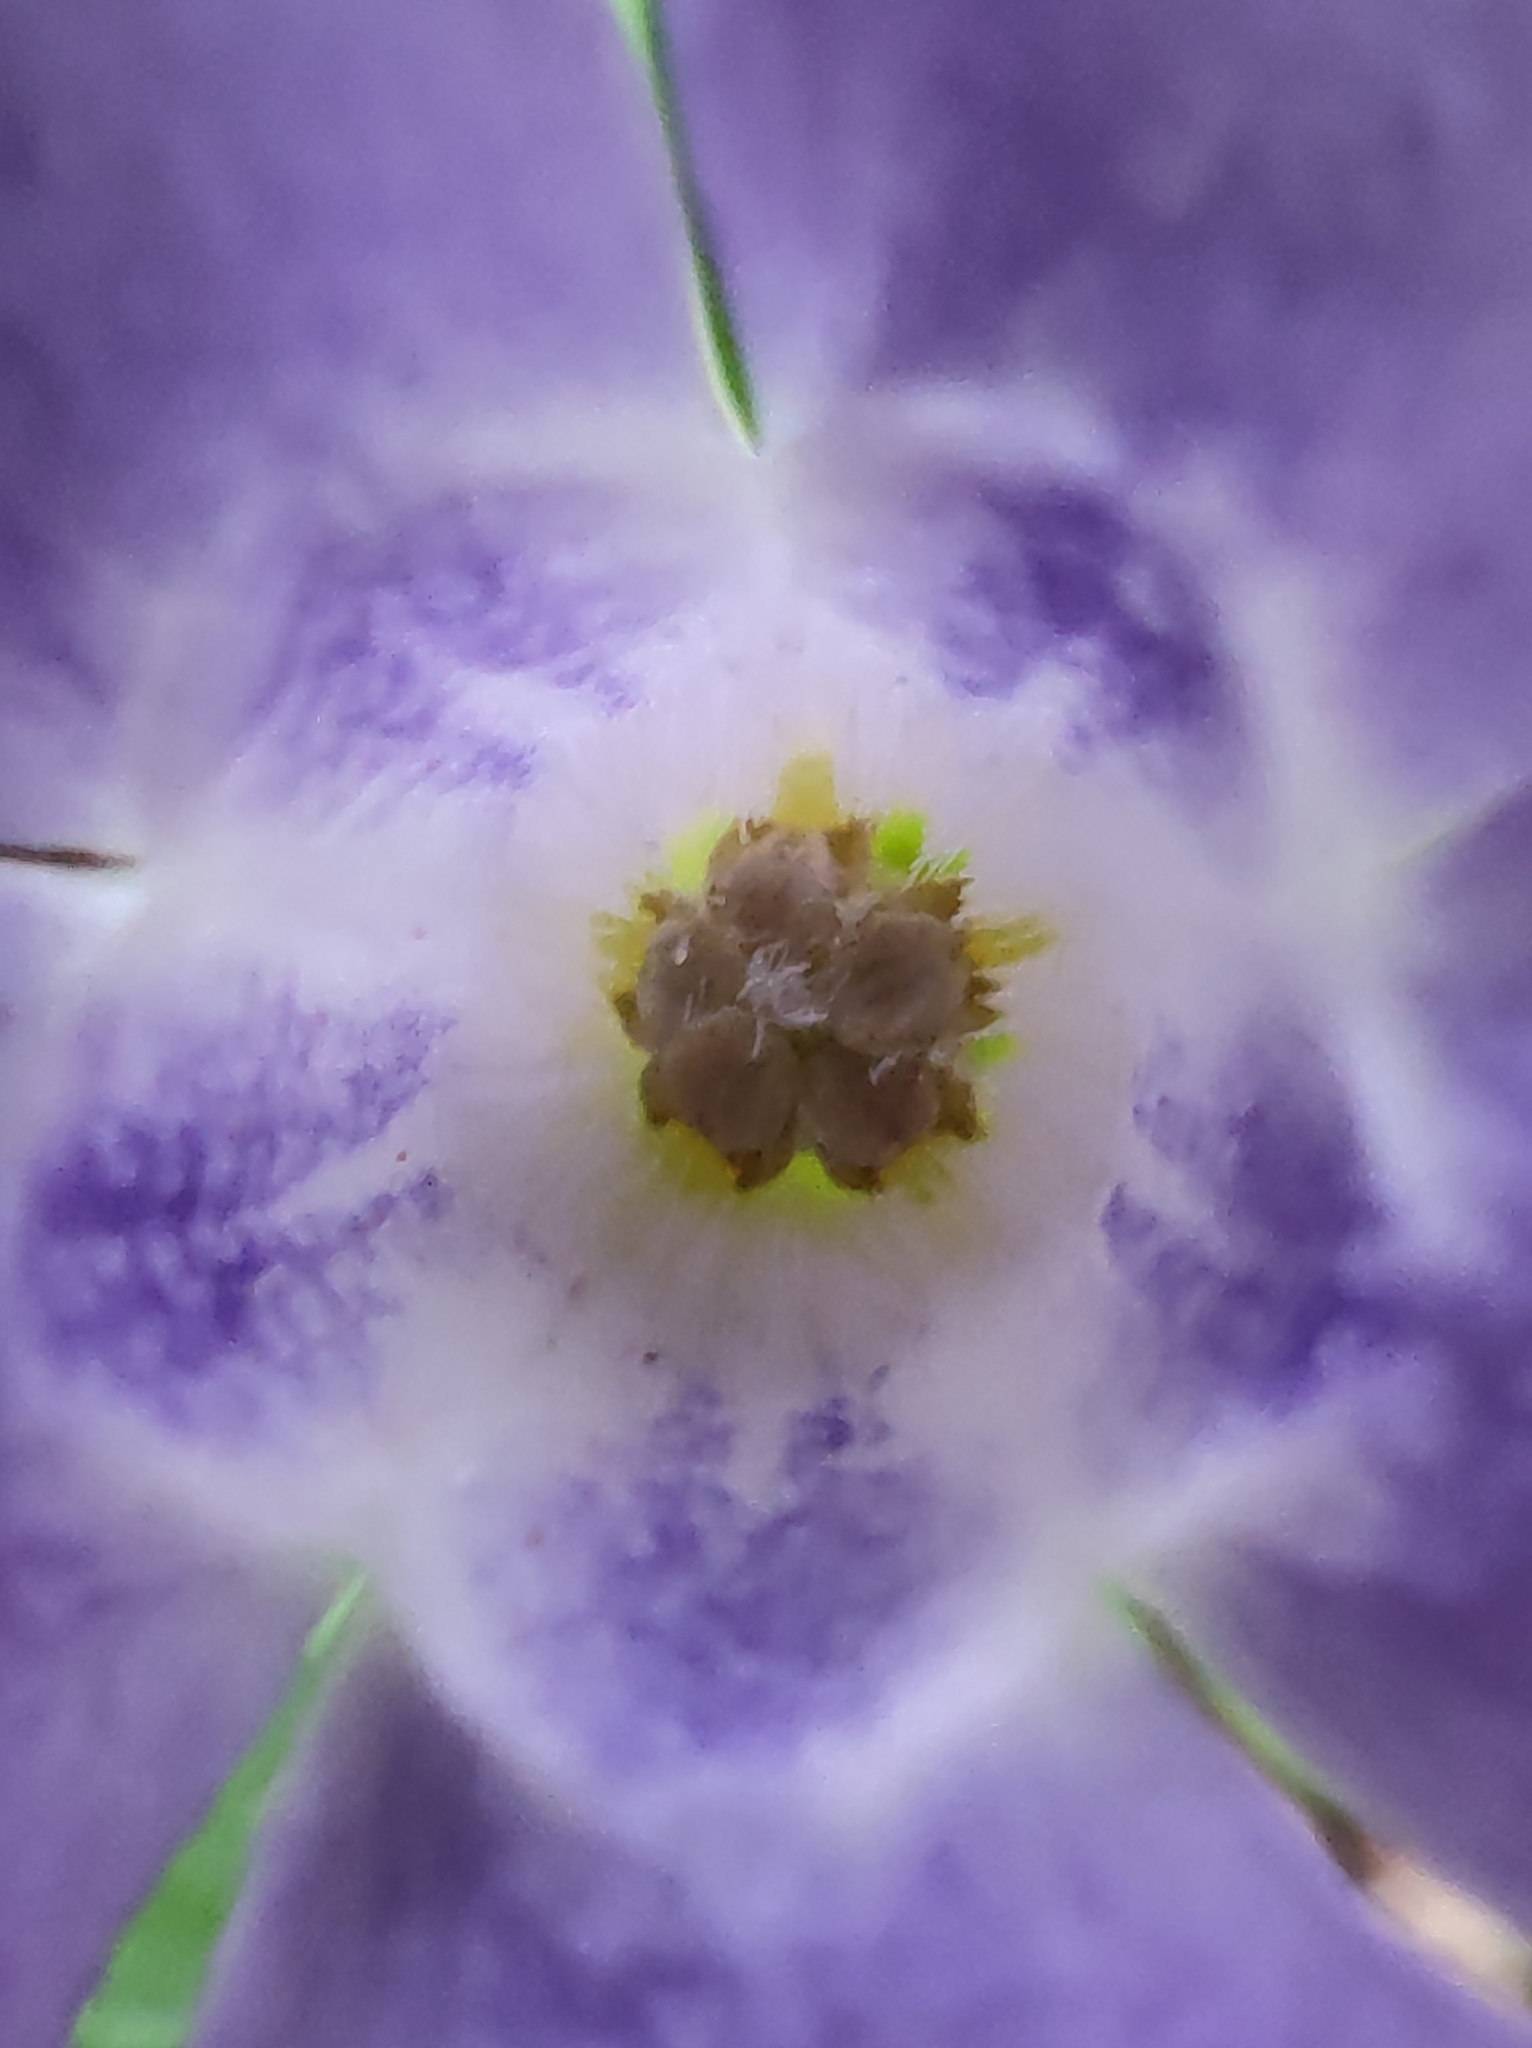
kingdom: Plantae
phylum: Tracheophyta
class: Magnoliopsida
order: Gentianales
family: Apocynaceae
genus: Vinca
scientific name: Vinca minor
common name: Lesser periwinkle
